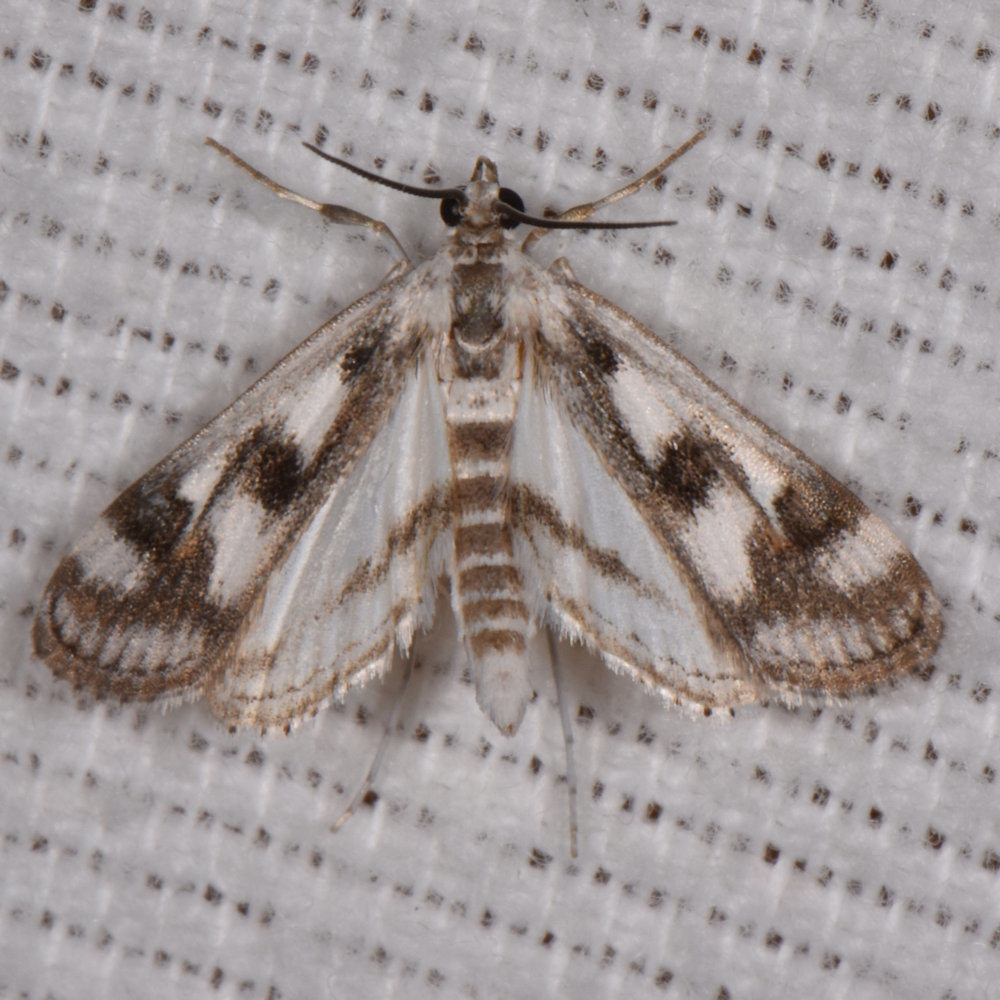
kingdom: Animalia
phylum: Arthropoda
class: Insecta
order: Lepidoptera
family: Crambidae
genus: Parapoynx
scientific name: Parapoynx maculalis
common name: Polymorphic pondweed moth
